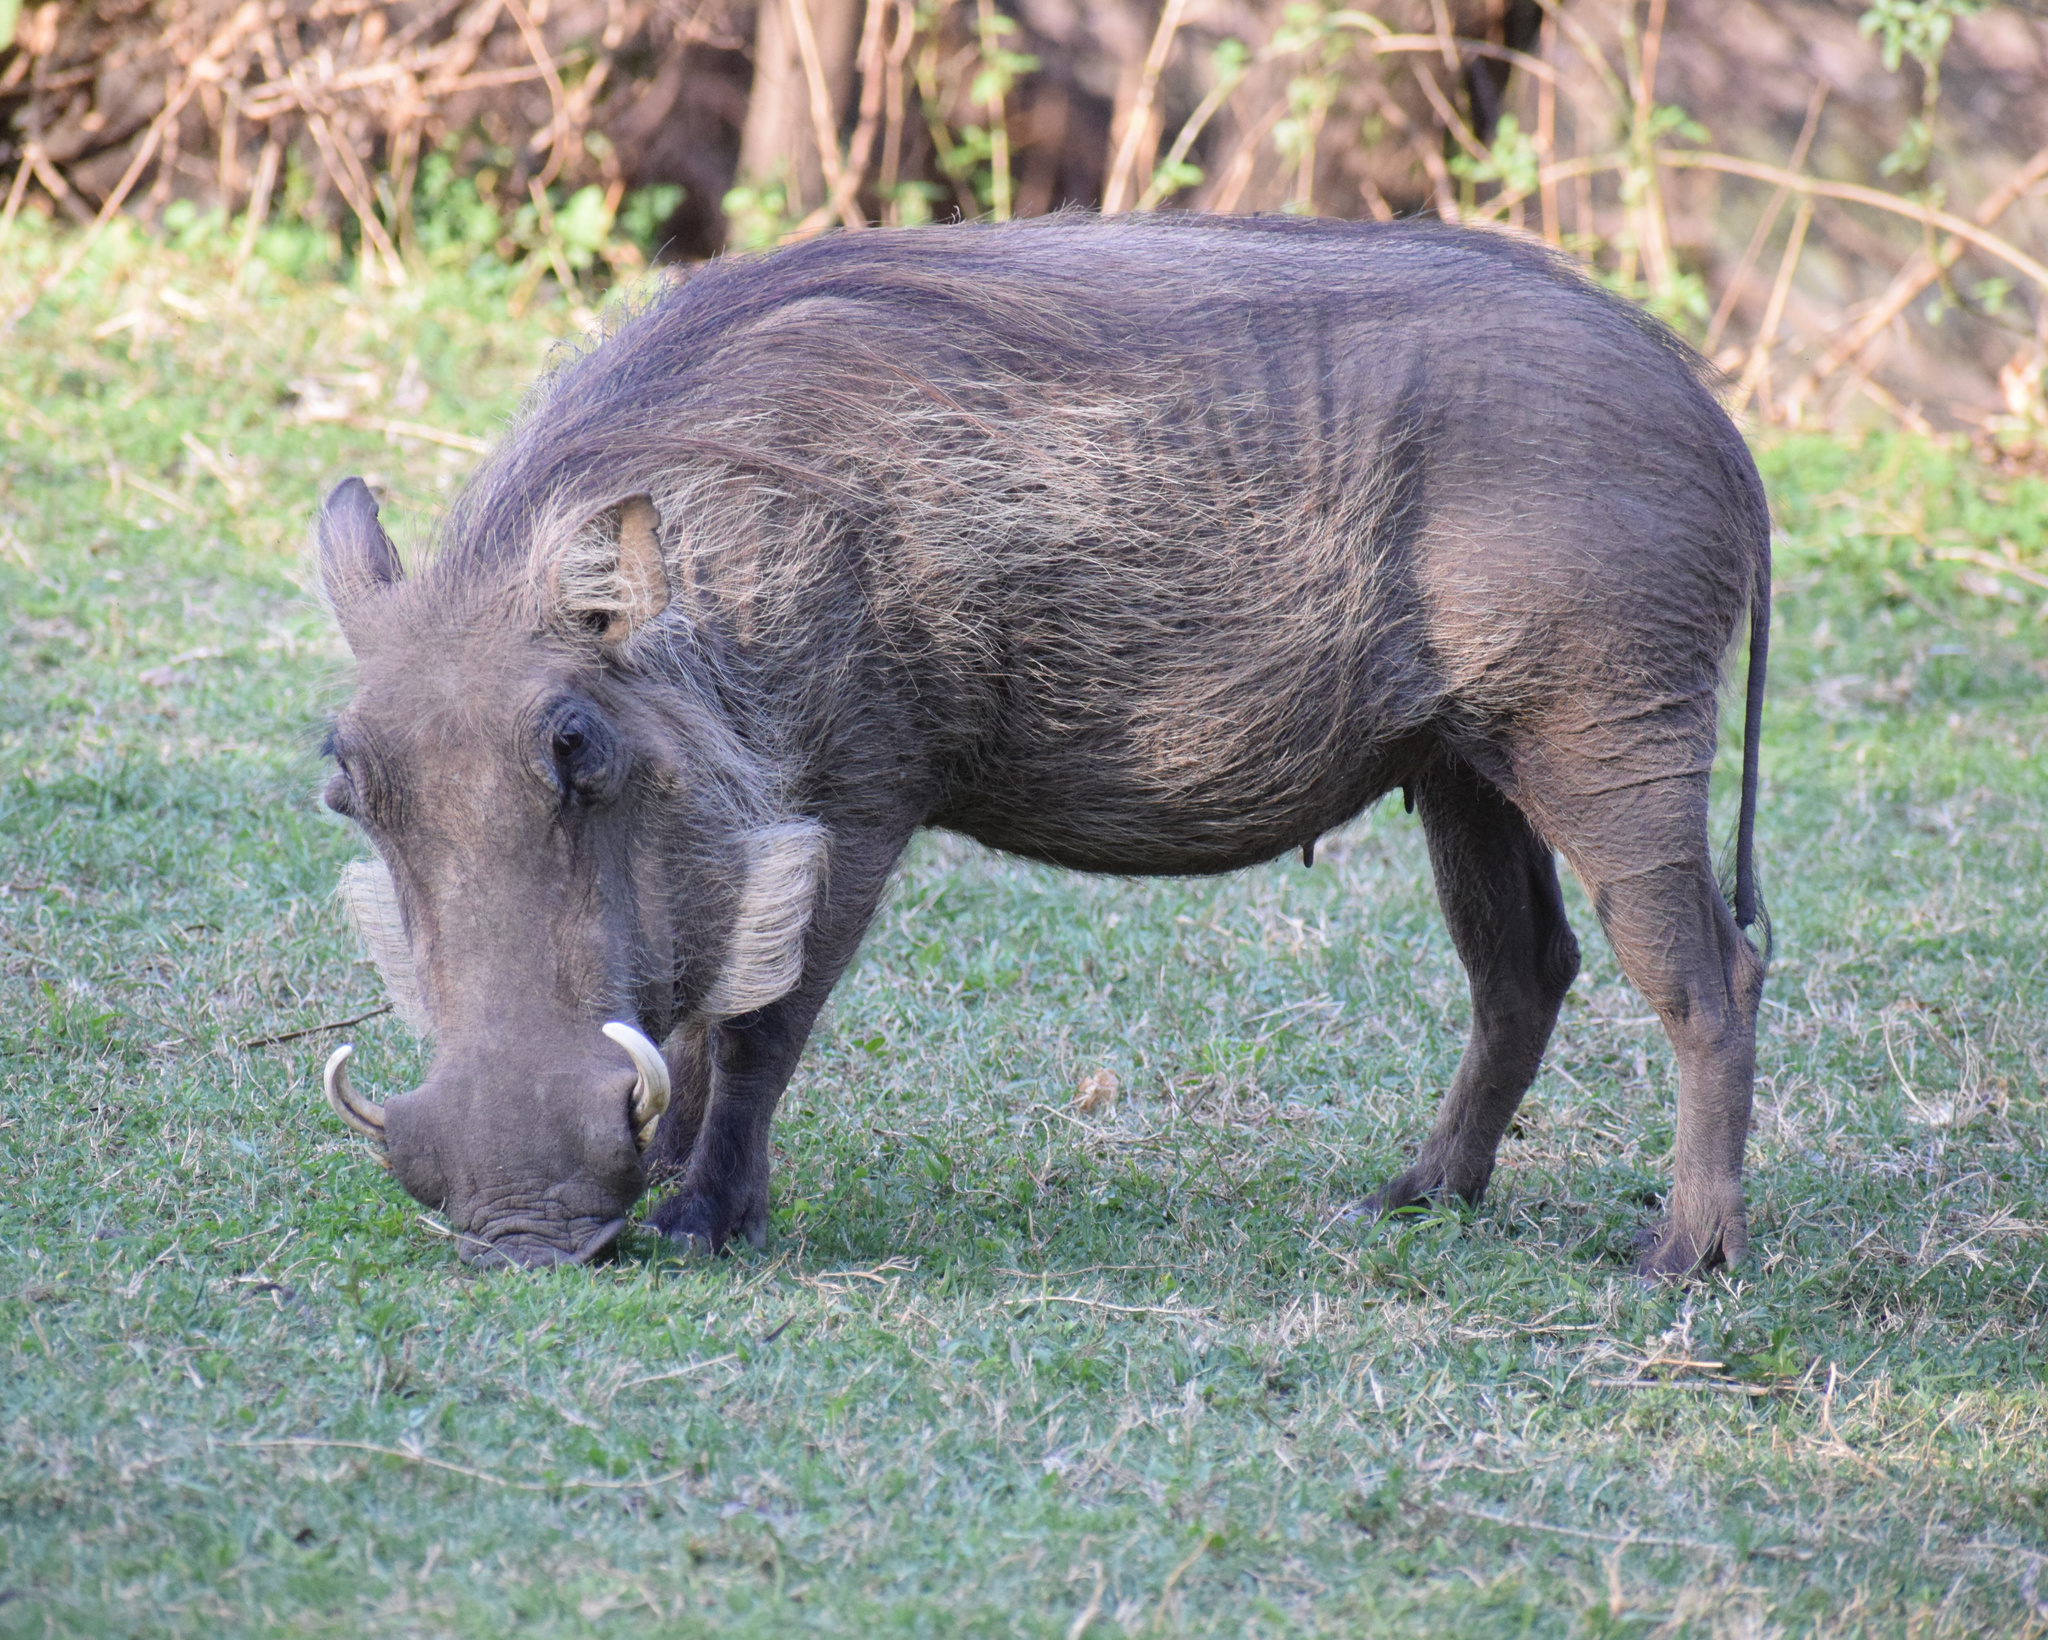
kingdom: Animalia
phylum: Chordata
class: Mammalia
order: Artiodactyla
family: Suidae
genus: Phacochoerus
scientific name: Phacochoerus africanus
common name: Common warthog
